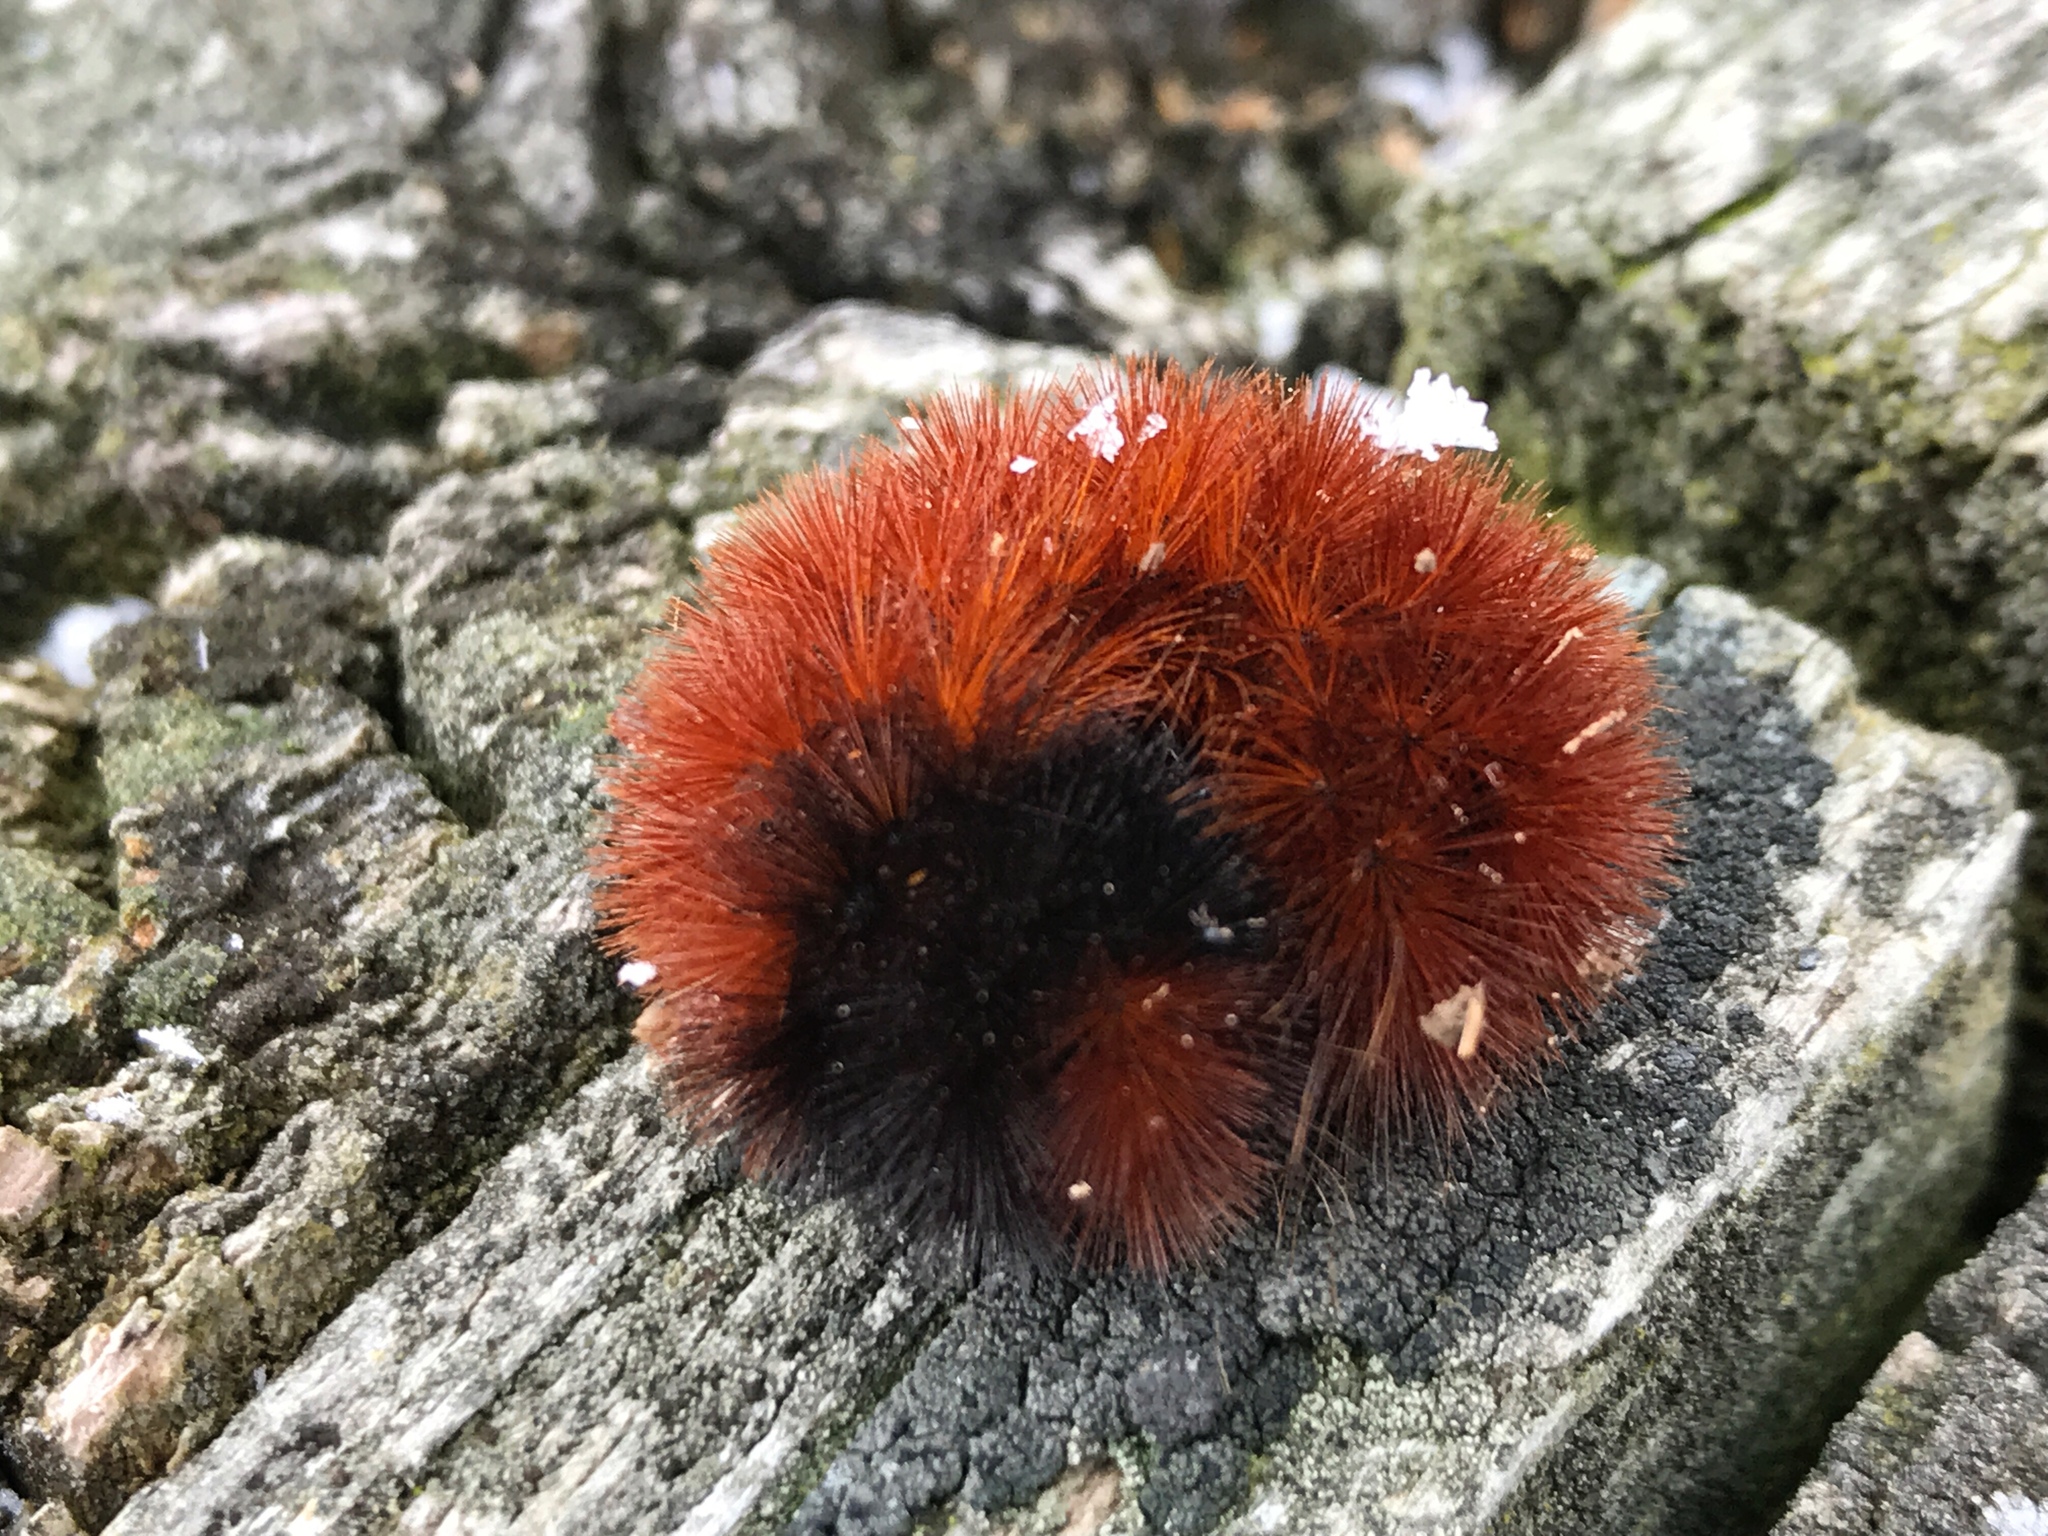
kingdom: Animalia
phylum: Arthropoda
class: Insecta
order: Lepidoptera
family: Erebidae
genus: Pyrrharctia
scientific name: Pyrrharctia isabella
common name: Isabella tiger moth
